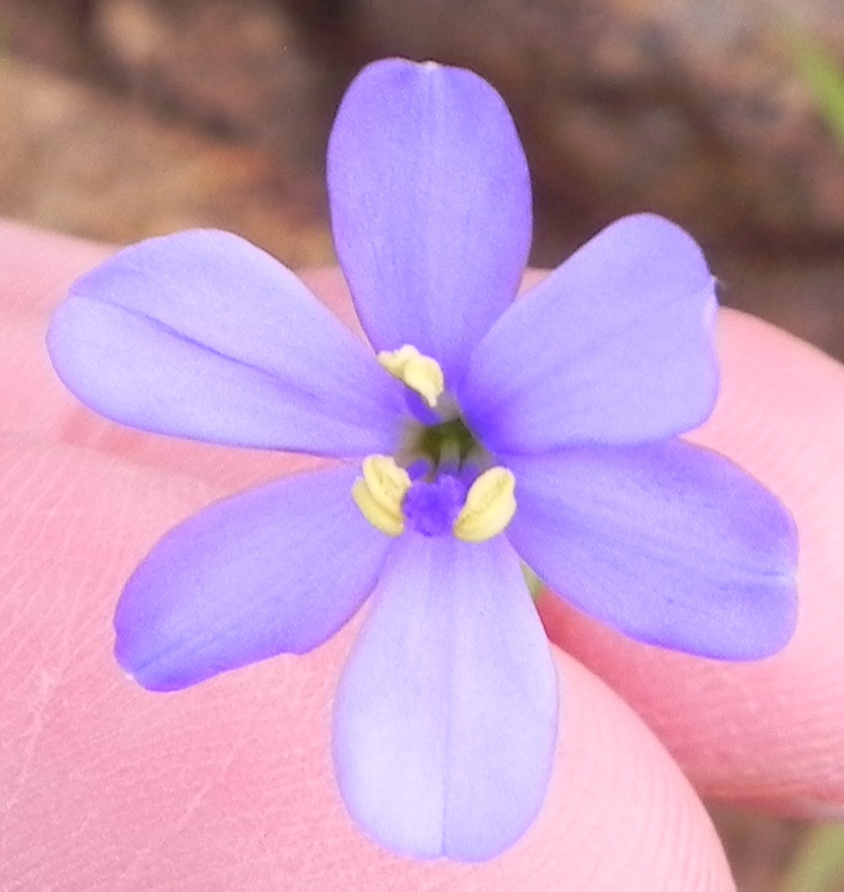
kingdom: Plantae
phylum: Tracheophyta
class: Liliopsida
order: Asparagales
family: Iridaceae
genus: Aristea
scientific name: Aristea abyssinica
